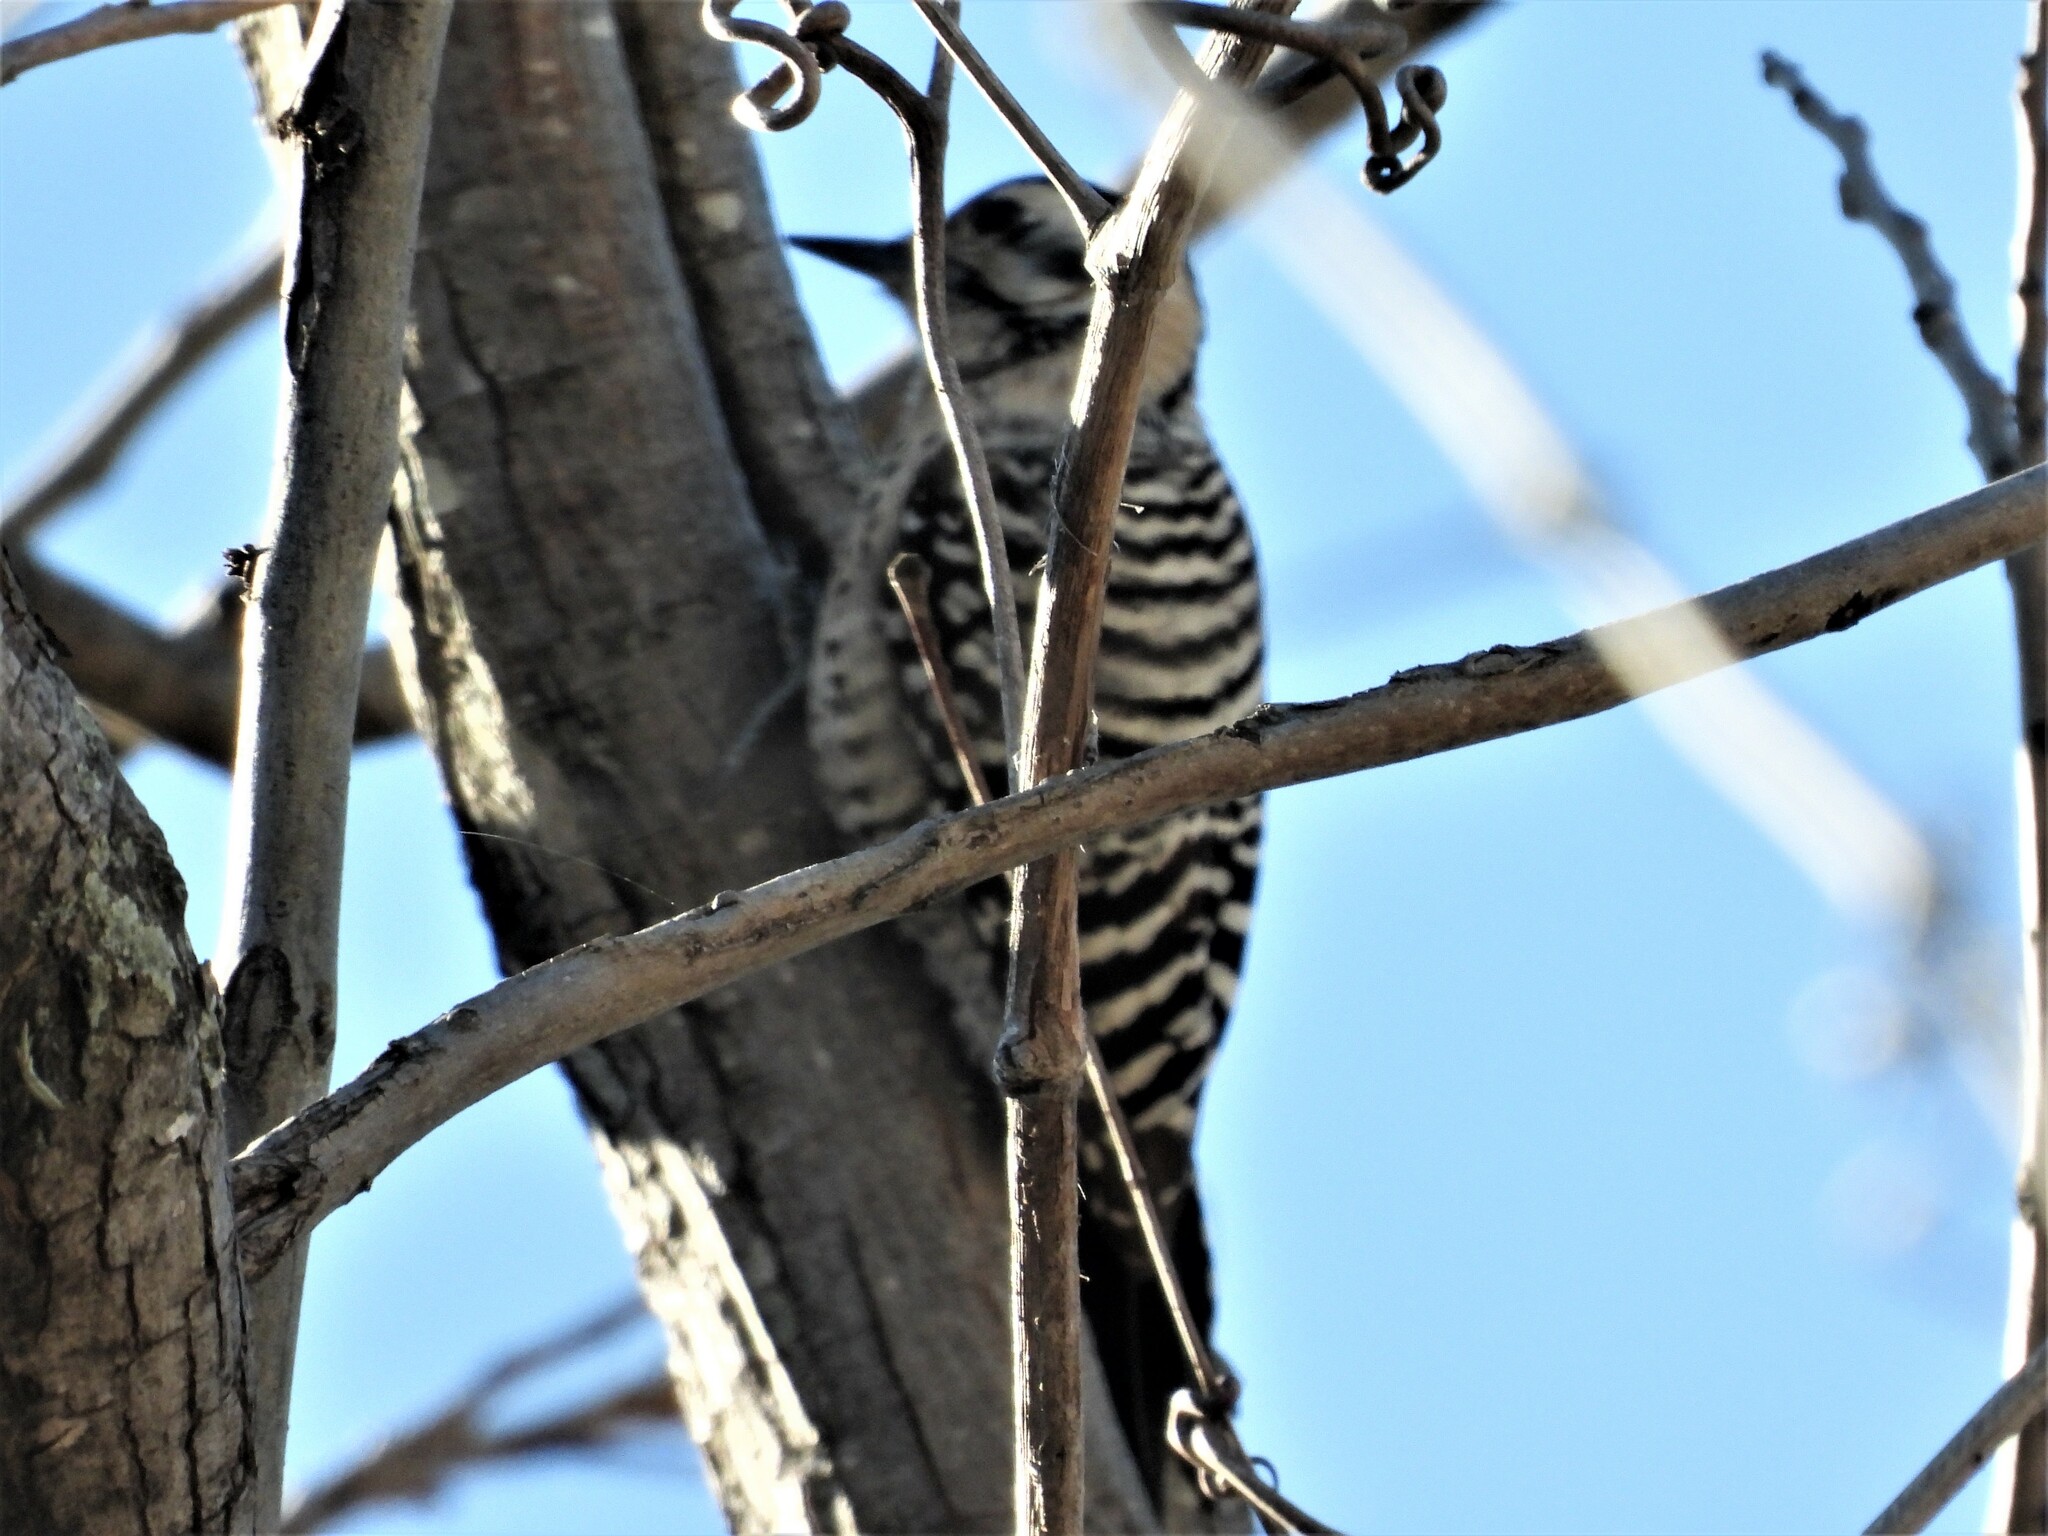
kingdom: Animalia
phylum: Chordata
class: Aves
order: Piciformes
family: Picidae
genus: Dryobates
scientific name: Dryobates scalaris
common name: Ladder-backed woodpecker
